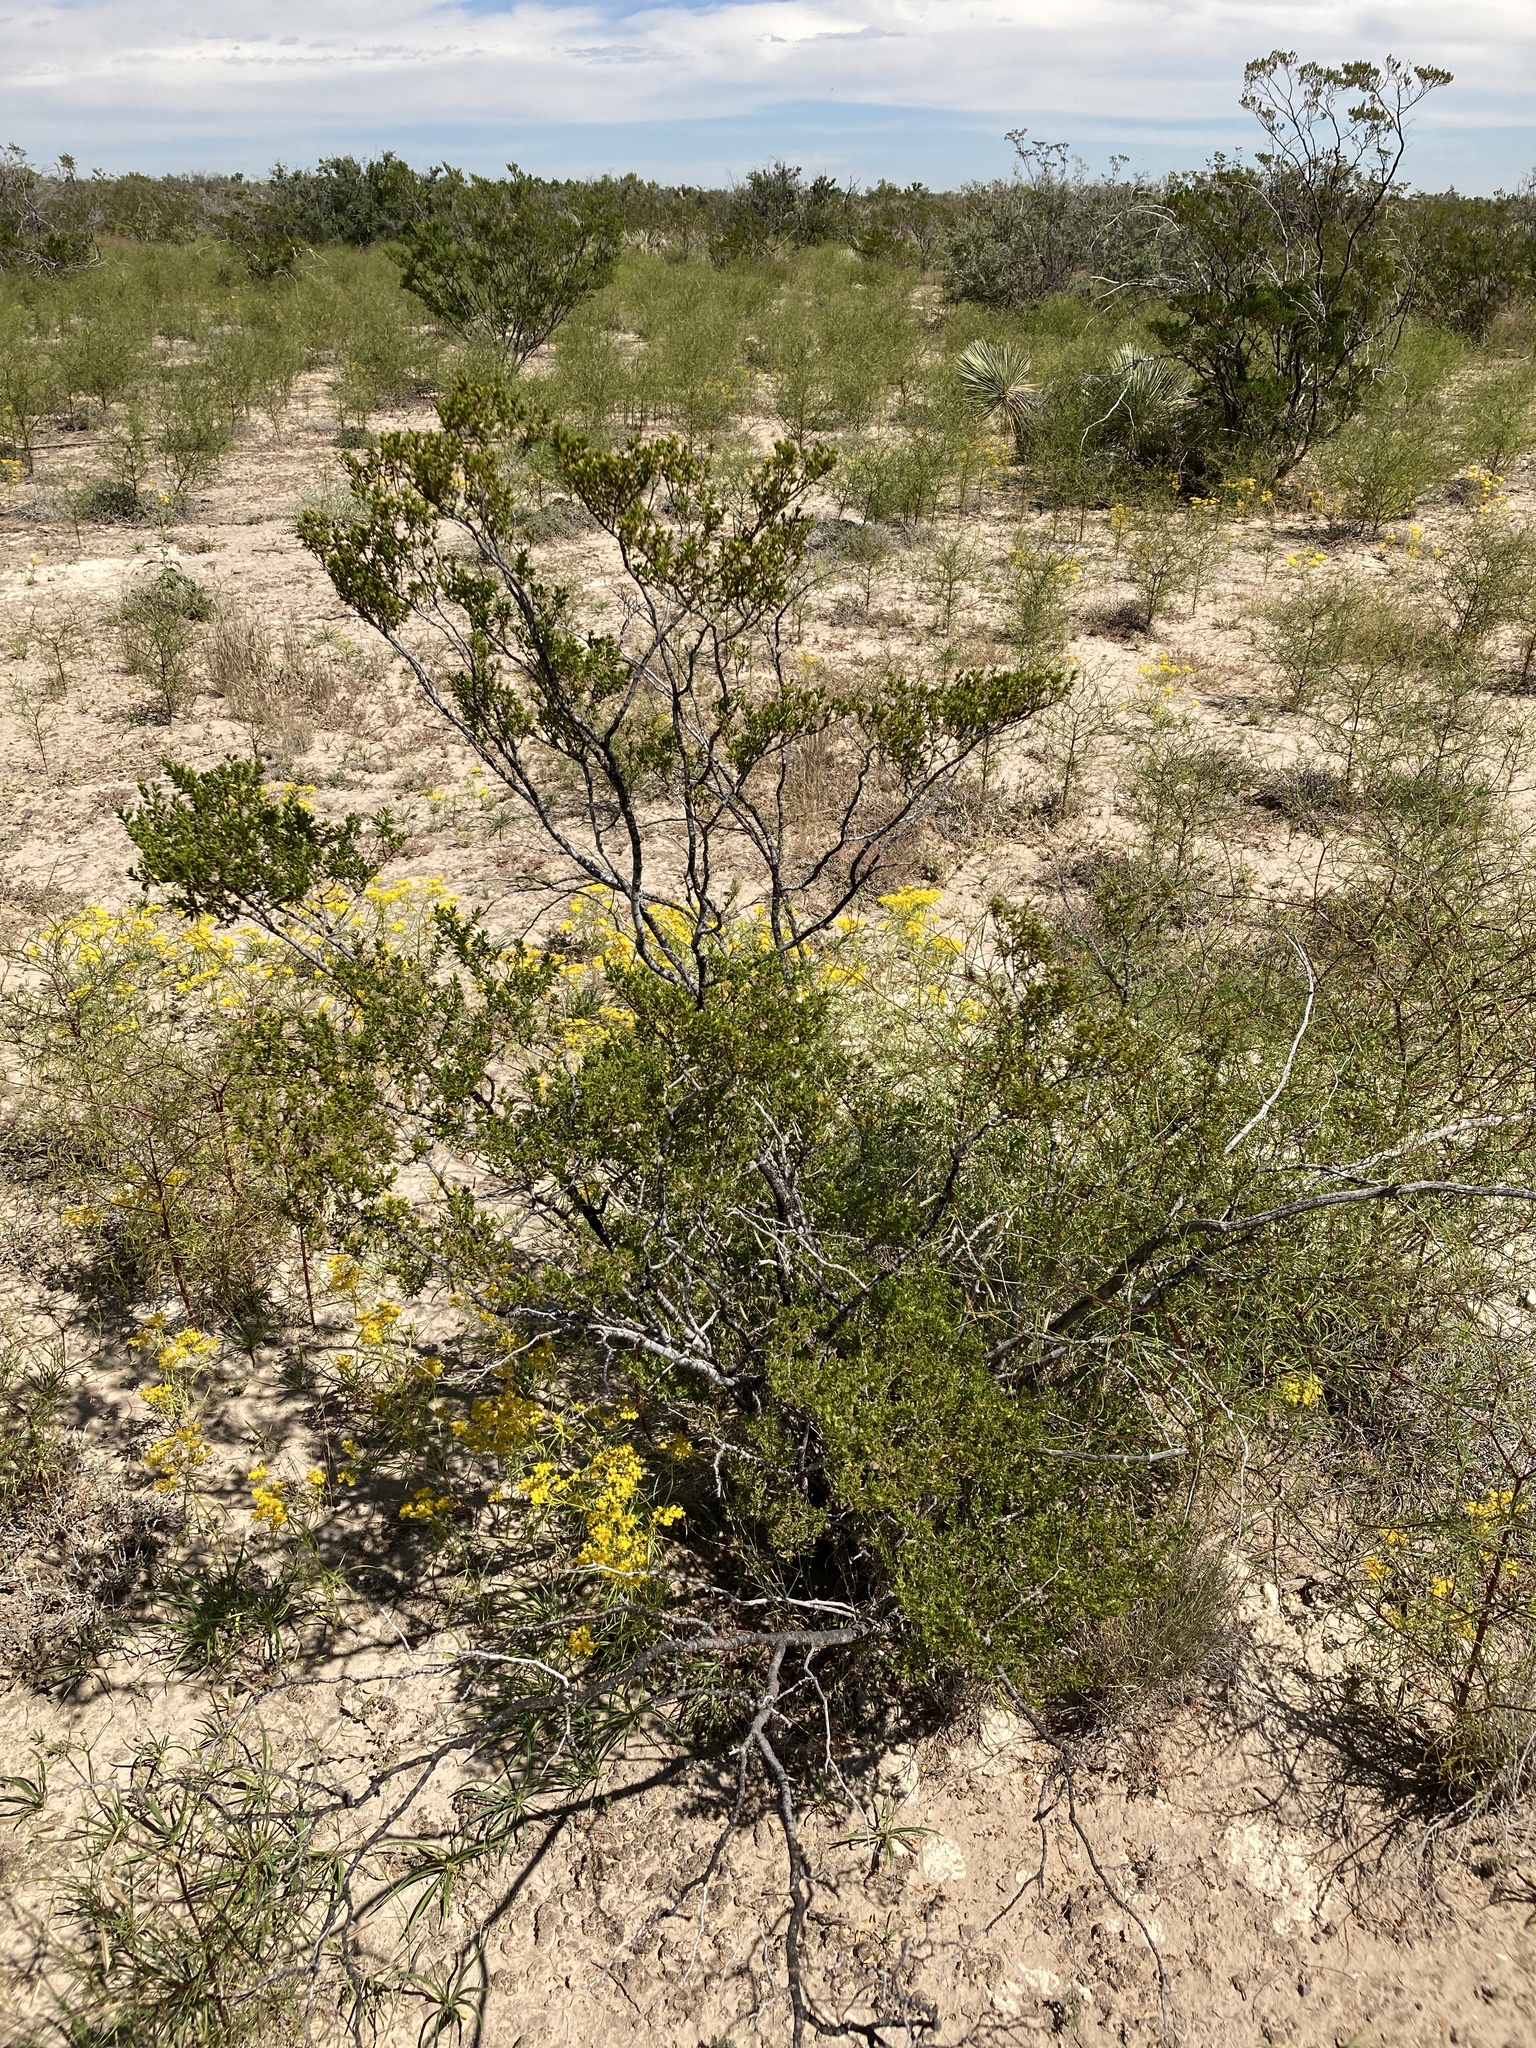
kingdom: Plantae
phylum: Tracheophyta
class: Magnoliopsida
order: Zygophyllales
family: Zygophyllaceae
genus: Larrea
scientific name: Larrea tridentata
